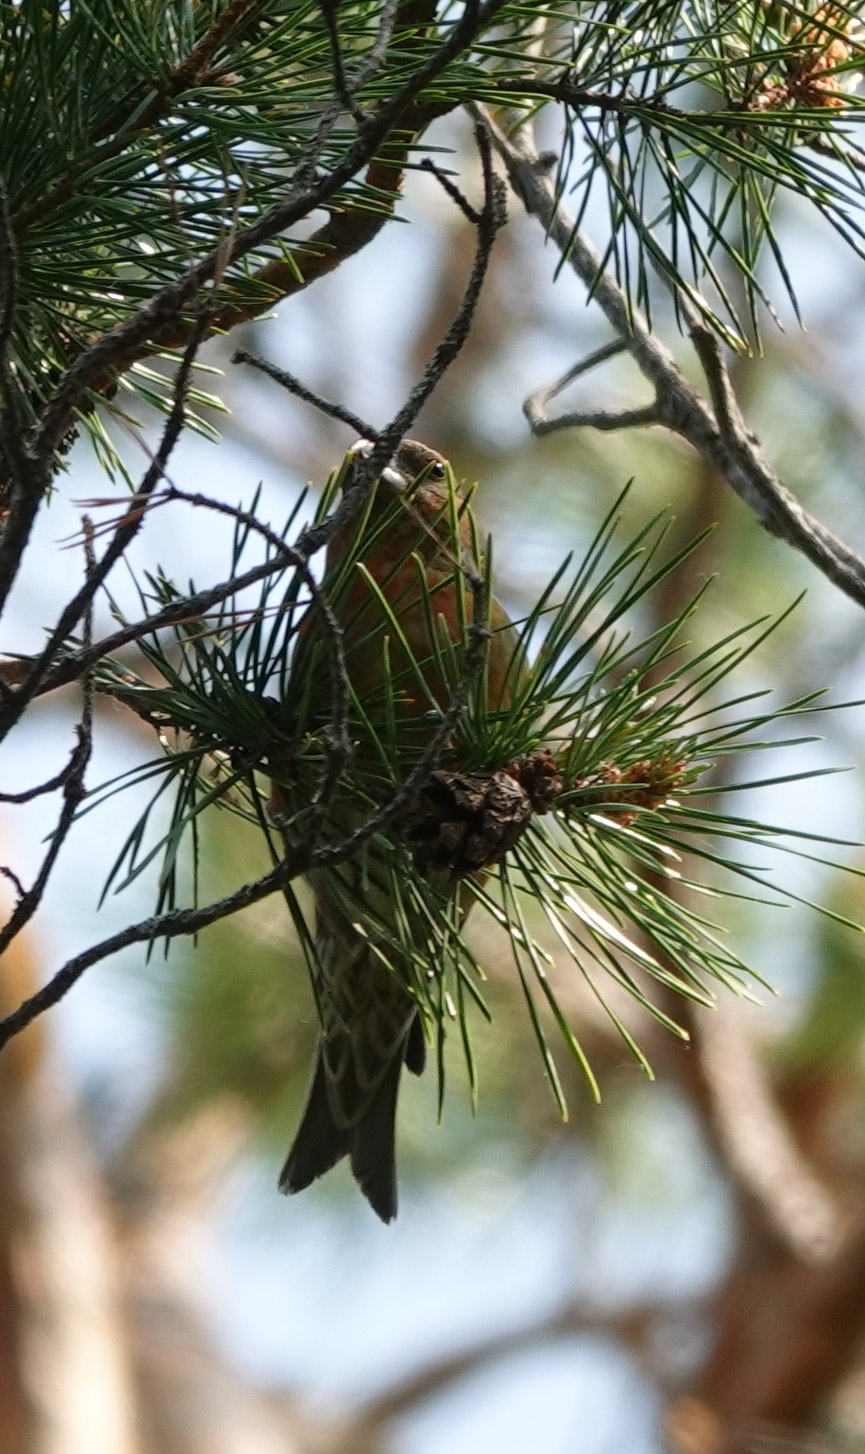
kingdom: Animalia
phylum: Chordata
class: Aves
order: Passeriformes
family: Fringillidae
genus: Loxia
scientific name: Loxia curvirostra
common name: Red crossbill
